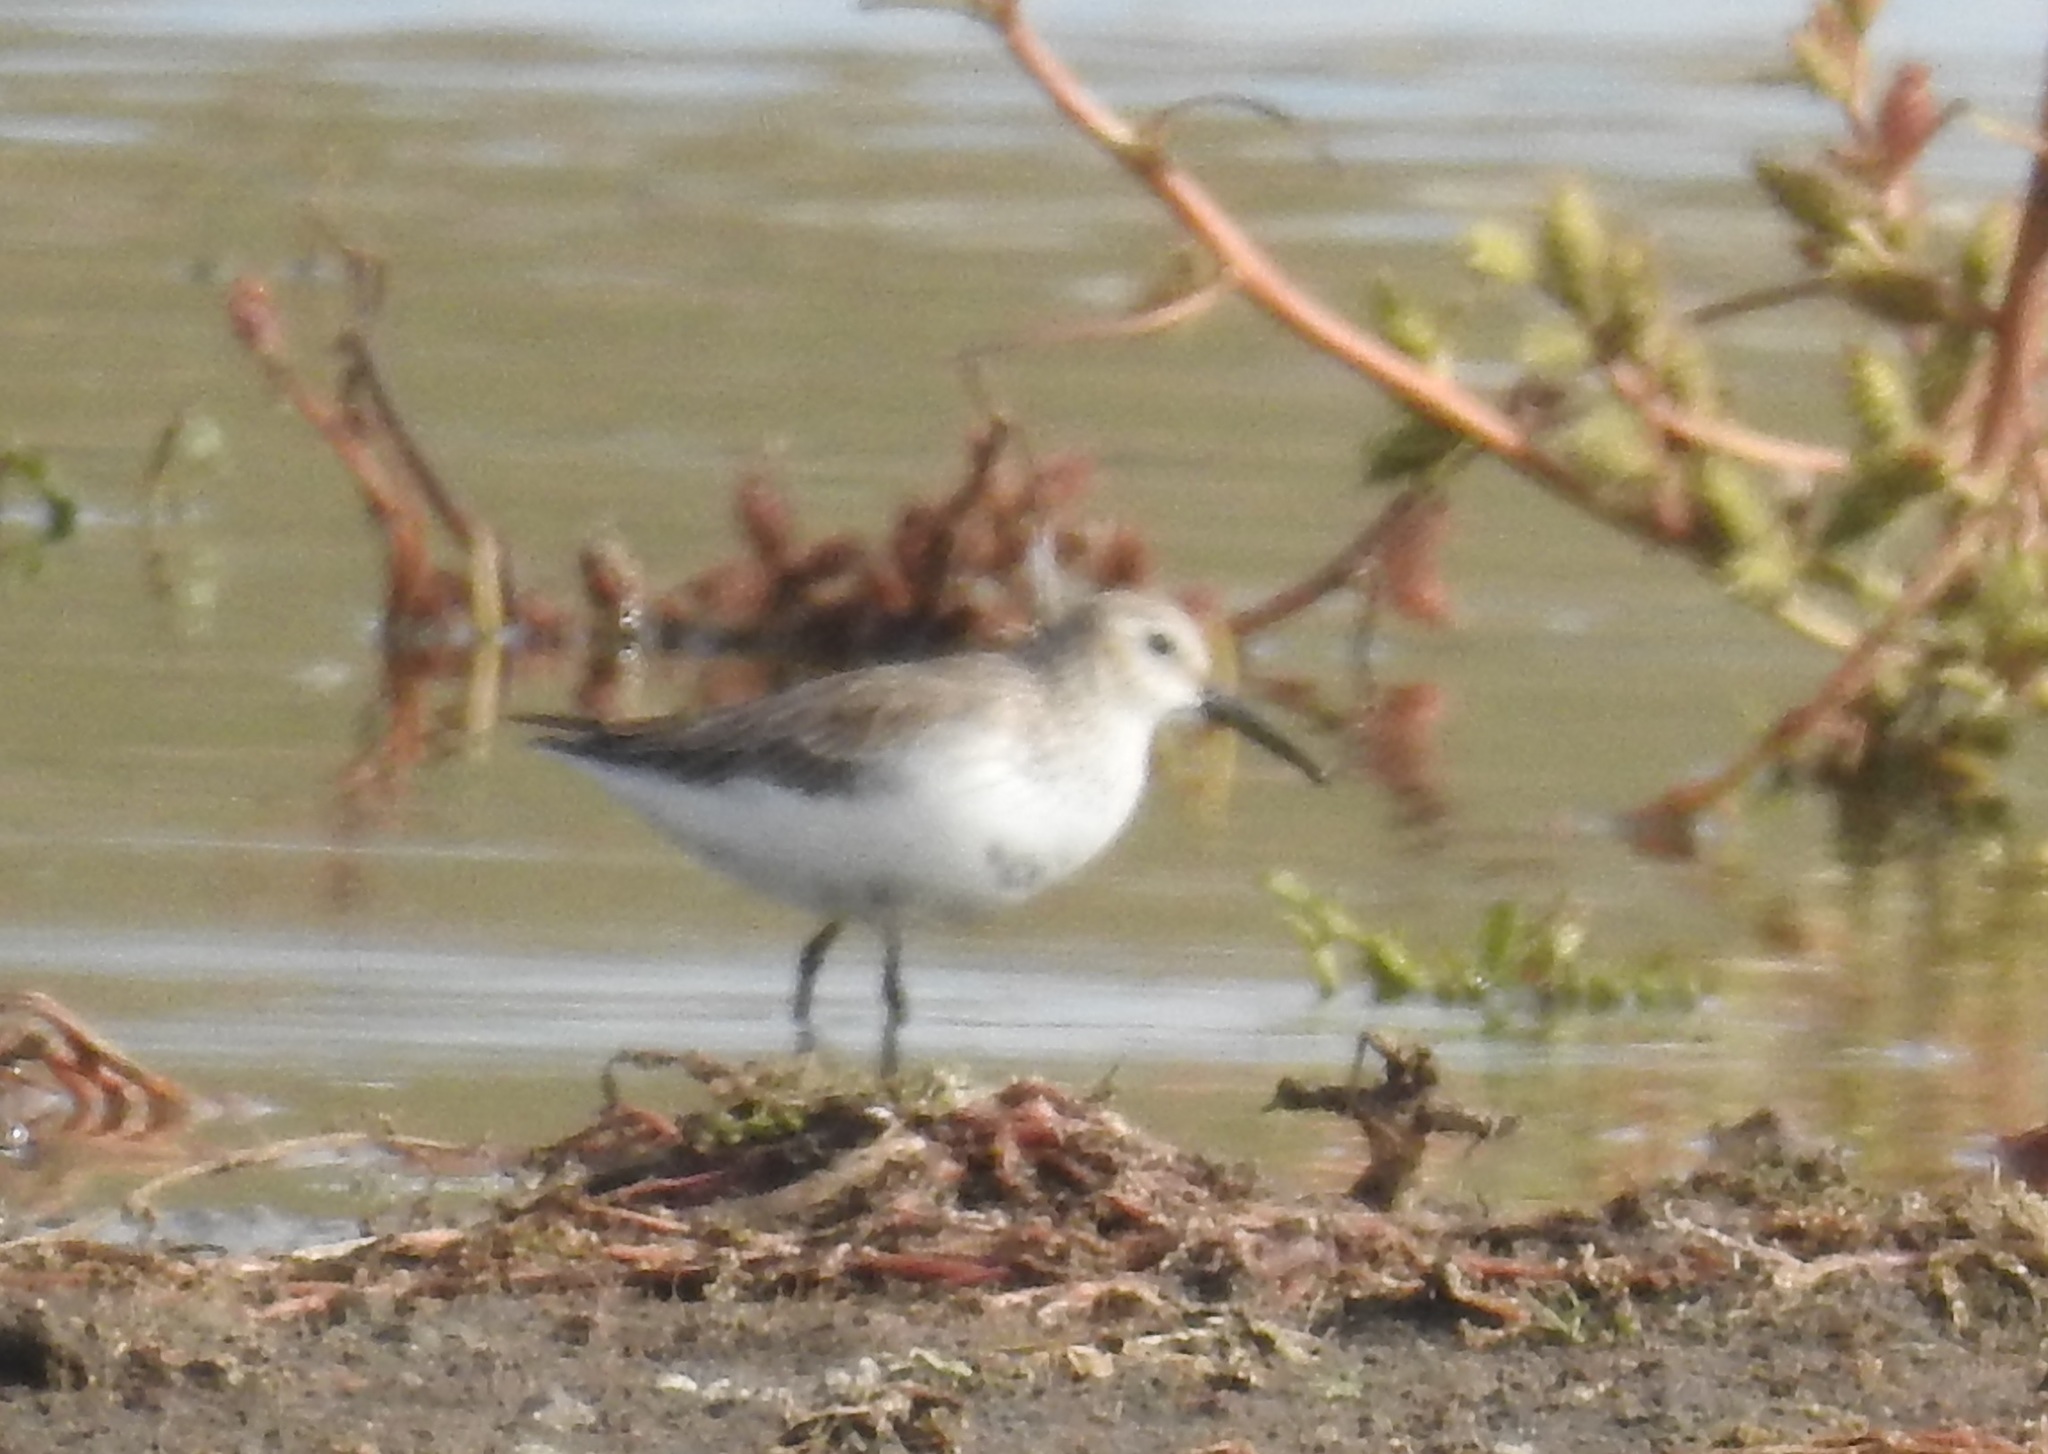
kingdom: Animalia
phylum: Chordata
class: Aves
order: Charadriiformes
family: Scolopacidae
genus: Calidris
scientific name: Calidris alpina
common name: Dunlin
